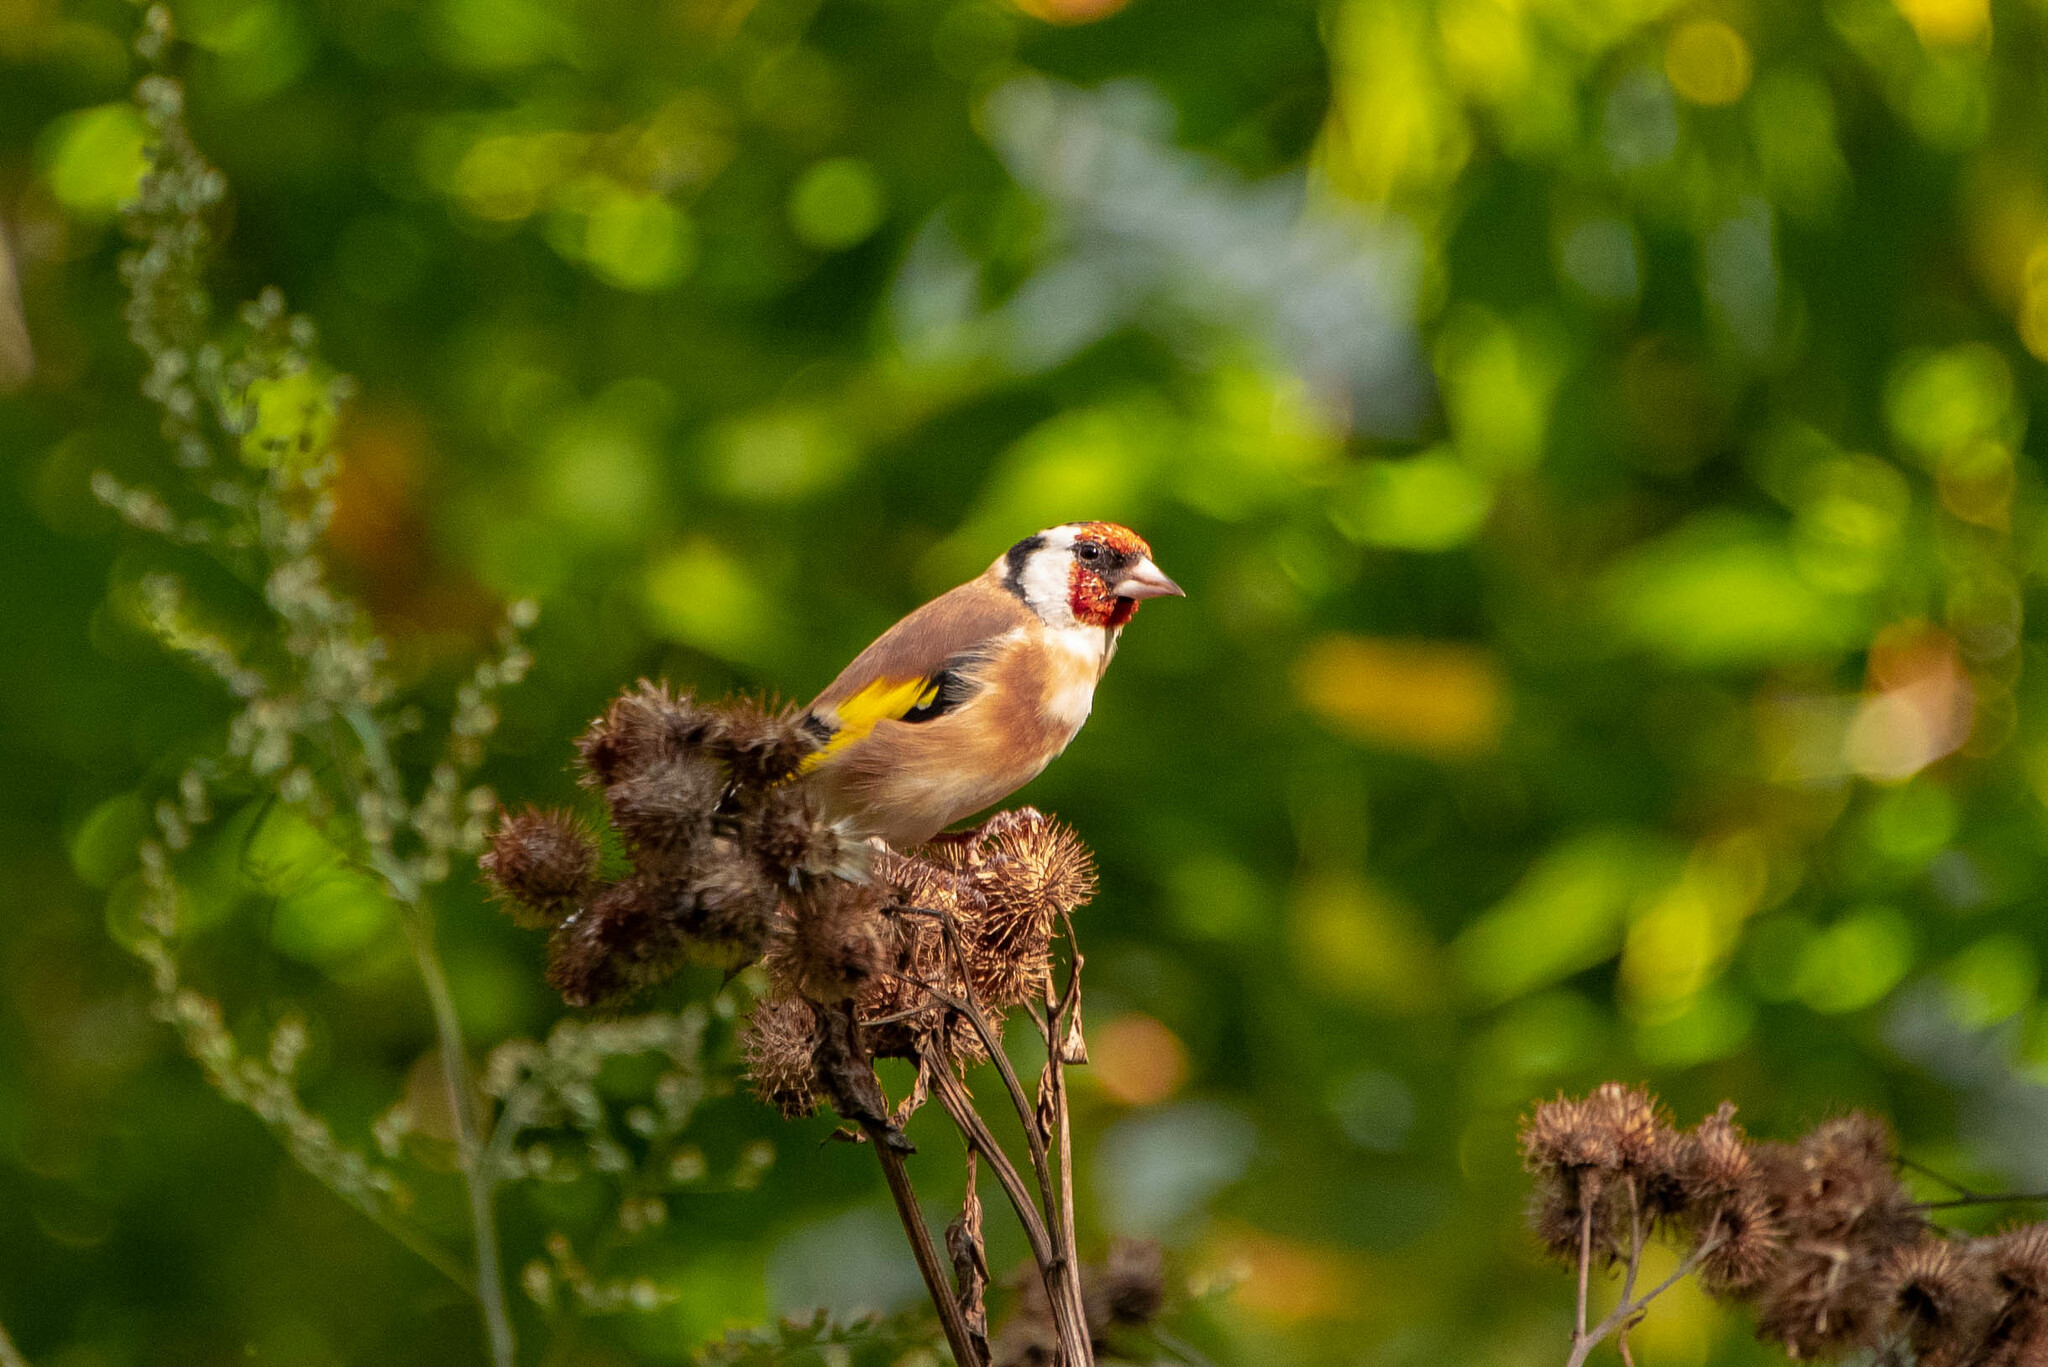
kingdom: Animalia
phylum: Chordata
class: Aves
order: Passeriformes
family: Fringillidae
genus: Carduelis
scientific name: Carduelis carduelis
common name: European goldfinch
